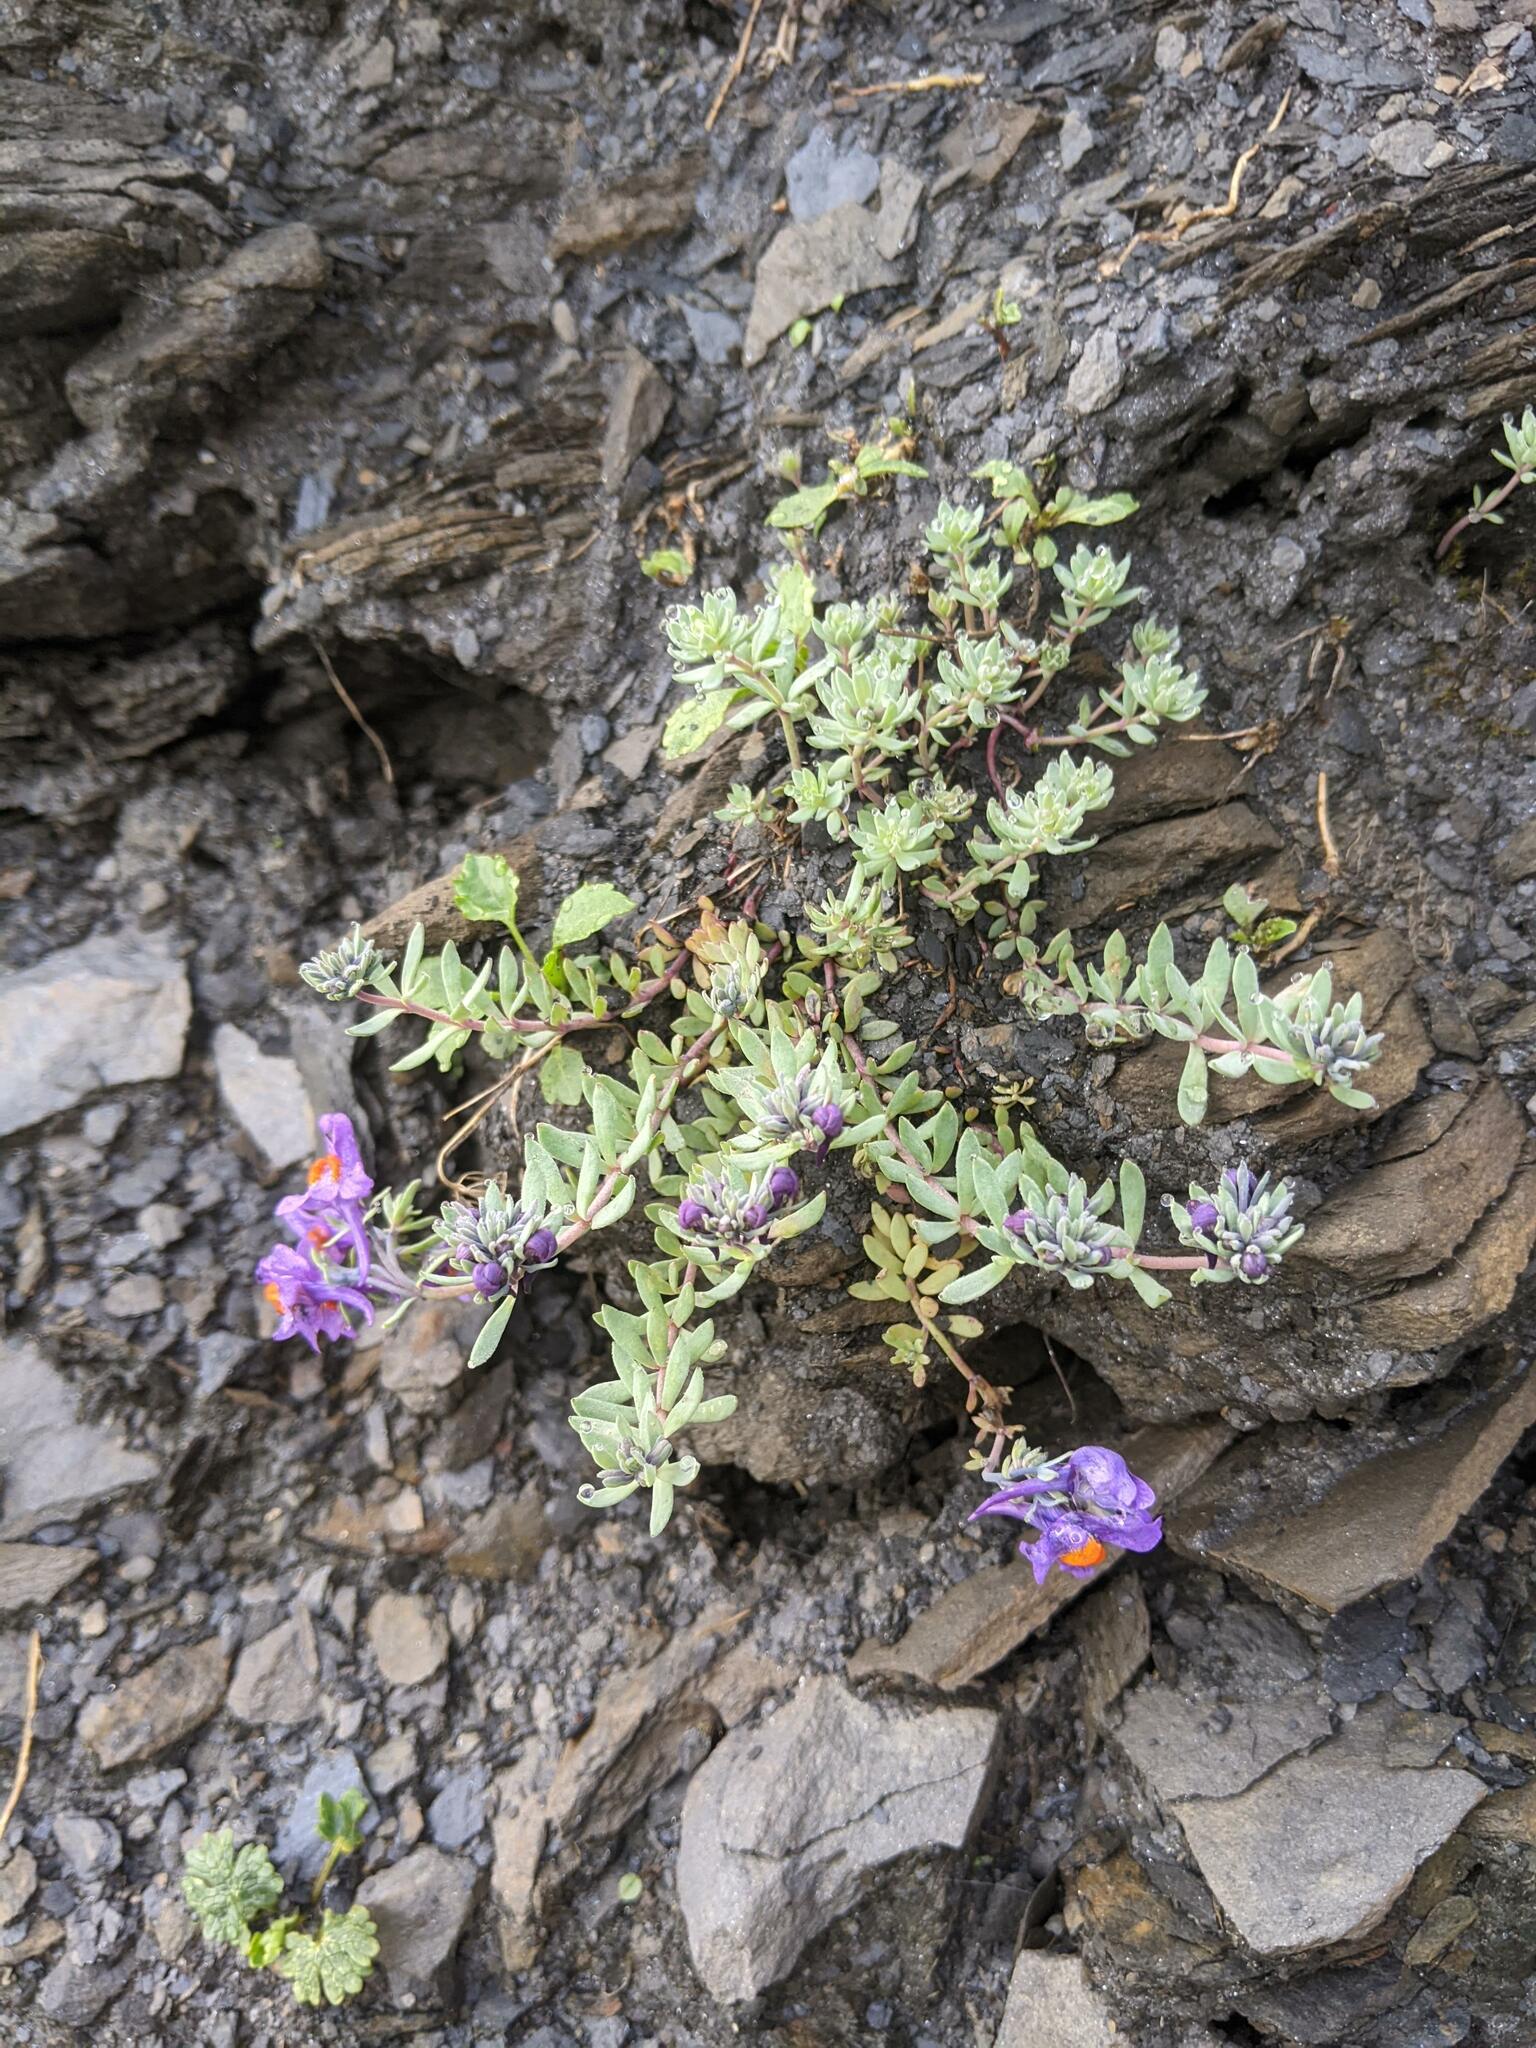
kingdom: Plantae
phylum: Tracheophyta
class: Magnoliopsida
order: Lamiales
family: Plantaginaceae
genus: Linaria
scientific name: Linaria alpina
